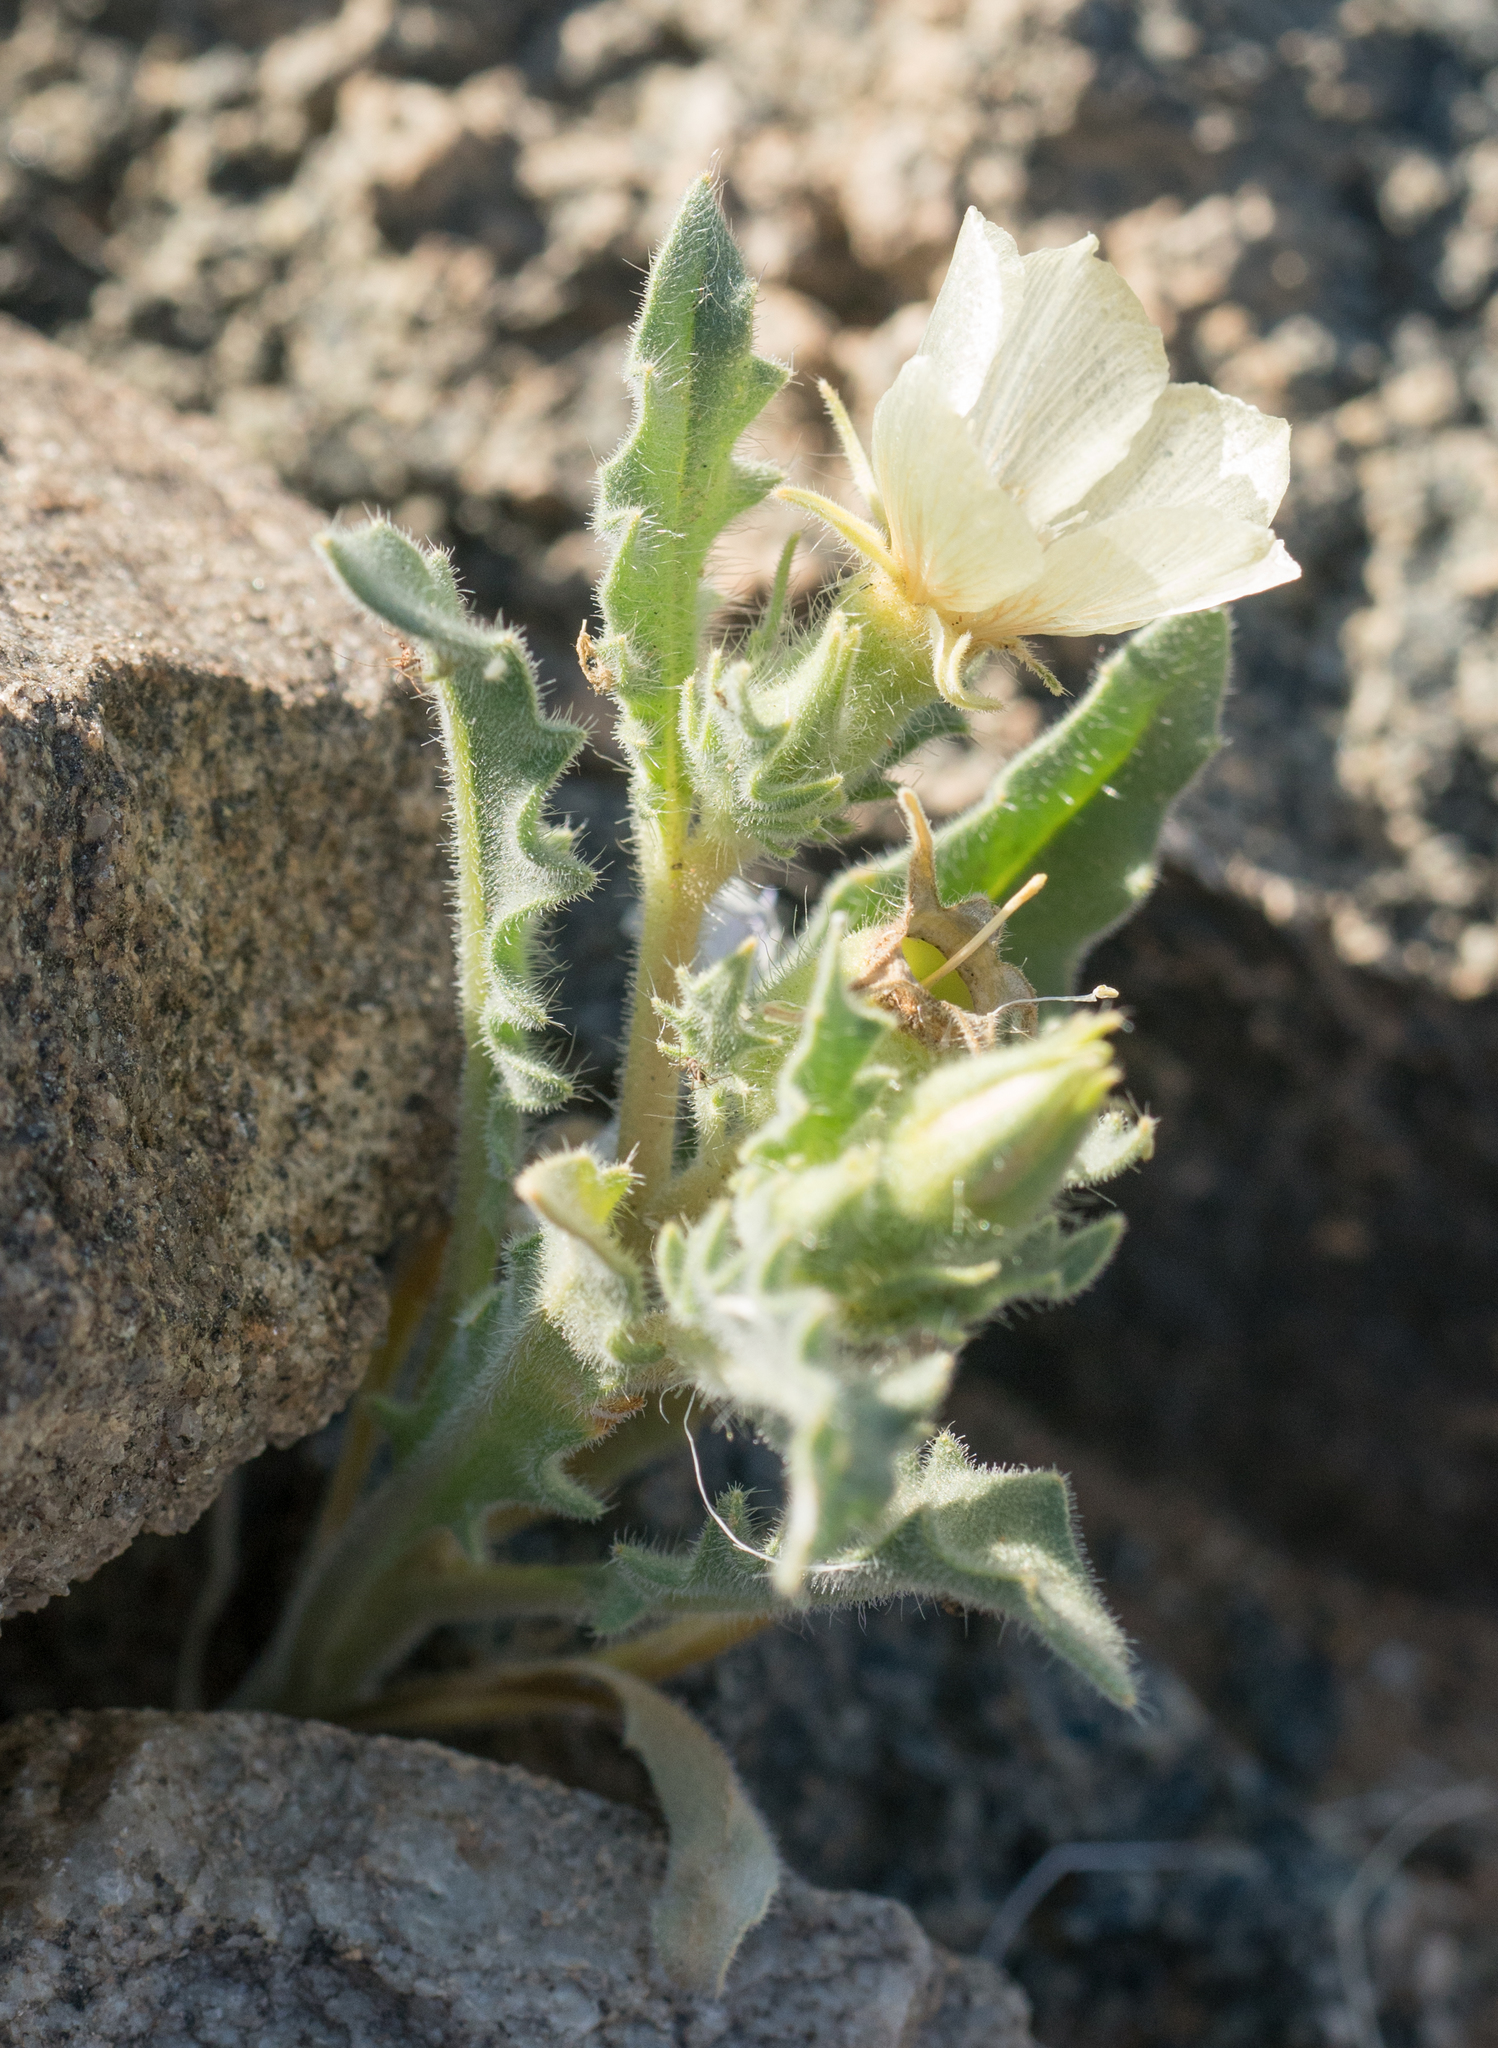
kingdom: Plantae
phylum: Tracheophyta
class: Magnoliopsida
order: Cornales
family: Loasaceae
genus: Mentzelia
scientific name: Mentzelia involucrata
